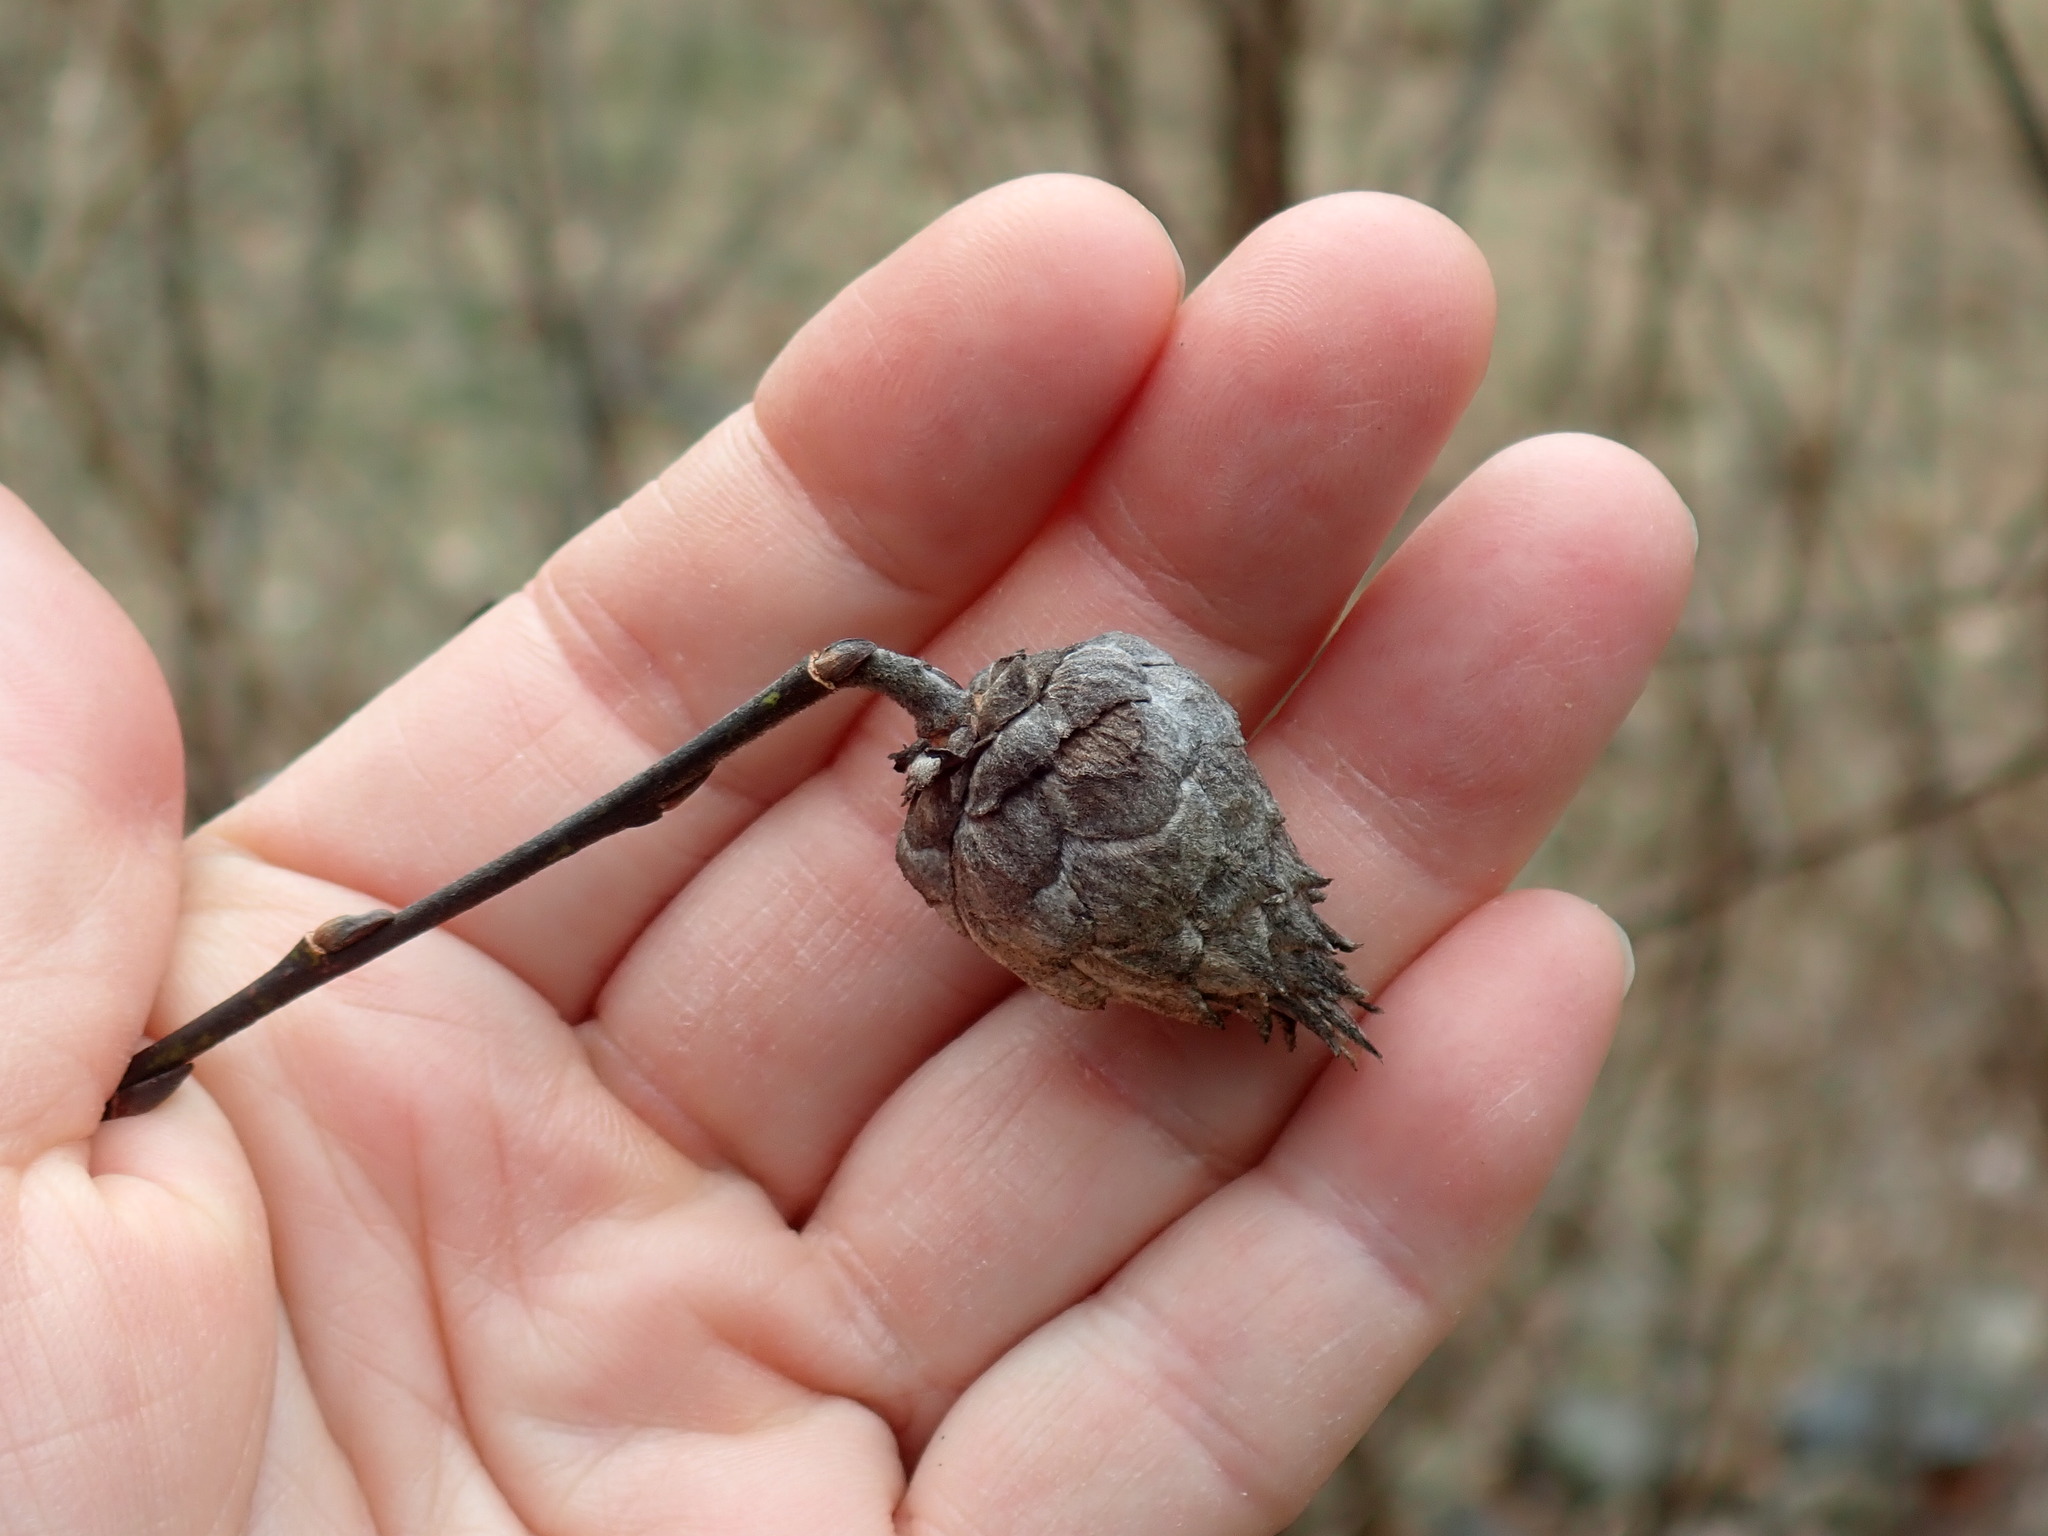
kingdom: Animalia
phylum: Arthropoda
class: Insecta
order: Diptera
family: Cecidomyiidae
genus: Rabdophaga
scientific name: Rabdophaga strobiloides
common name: Willow pinecone gall midge
